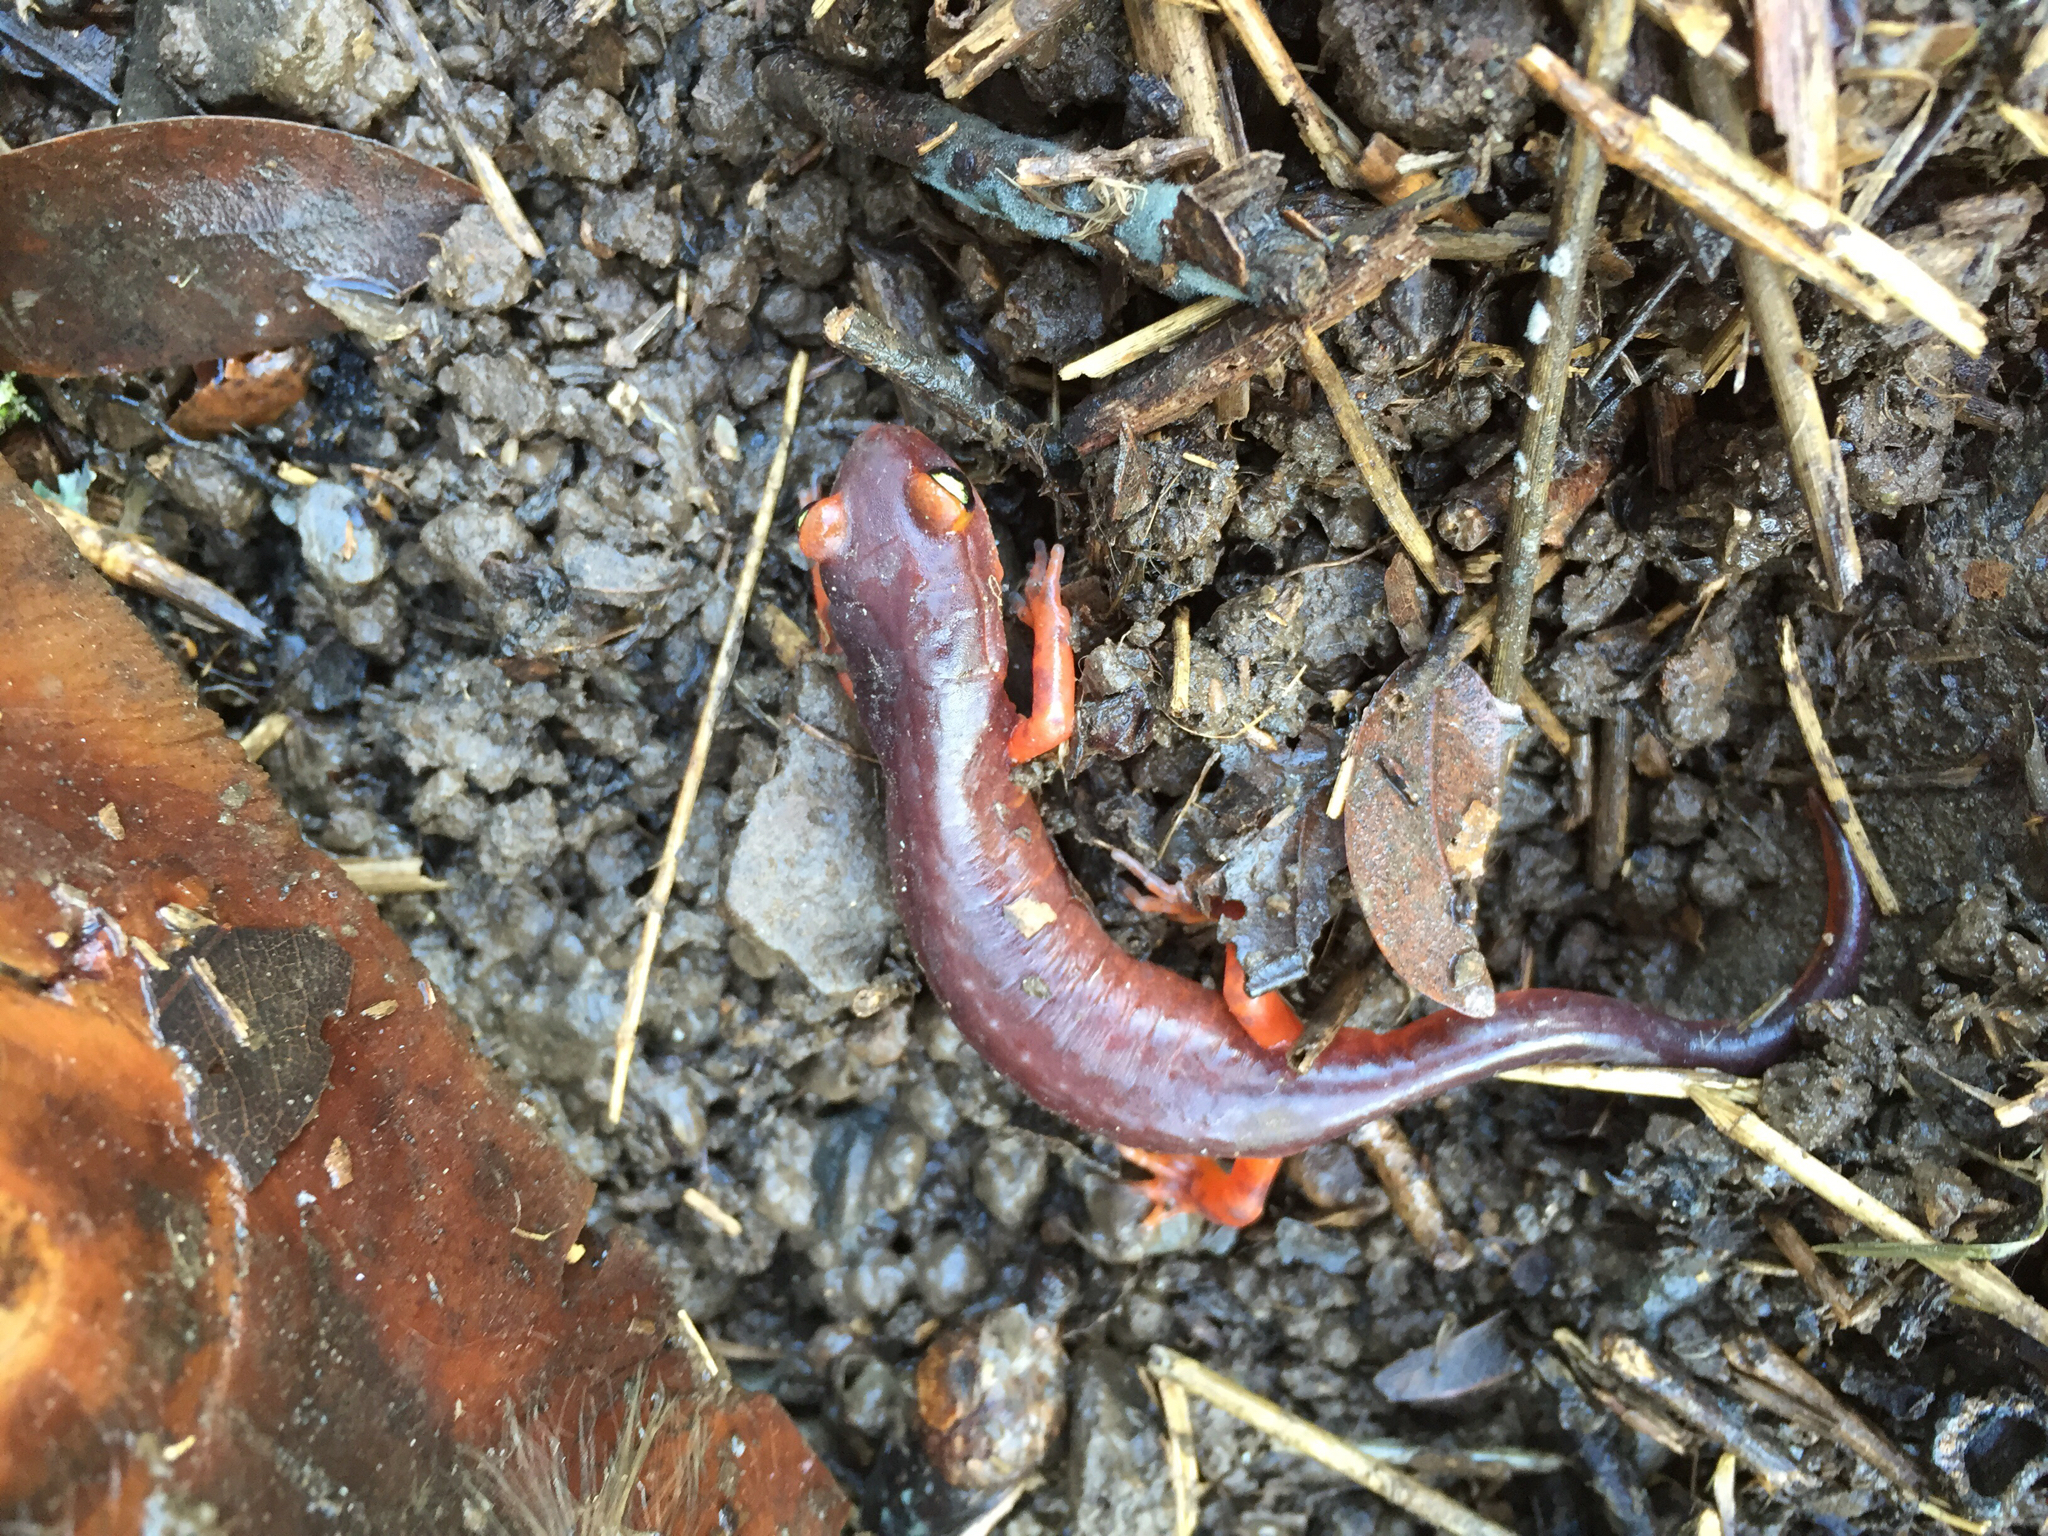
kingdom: Animalia
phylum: Chordata
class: Amphibia
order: Caudata
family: Plethodontidae
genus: Ensatina
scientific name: Ensatina eschscholtzii
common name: Ensatina
